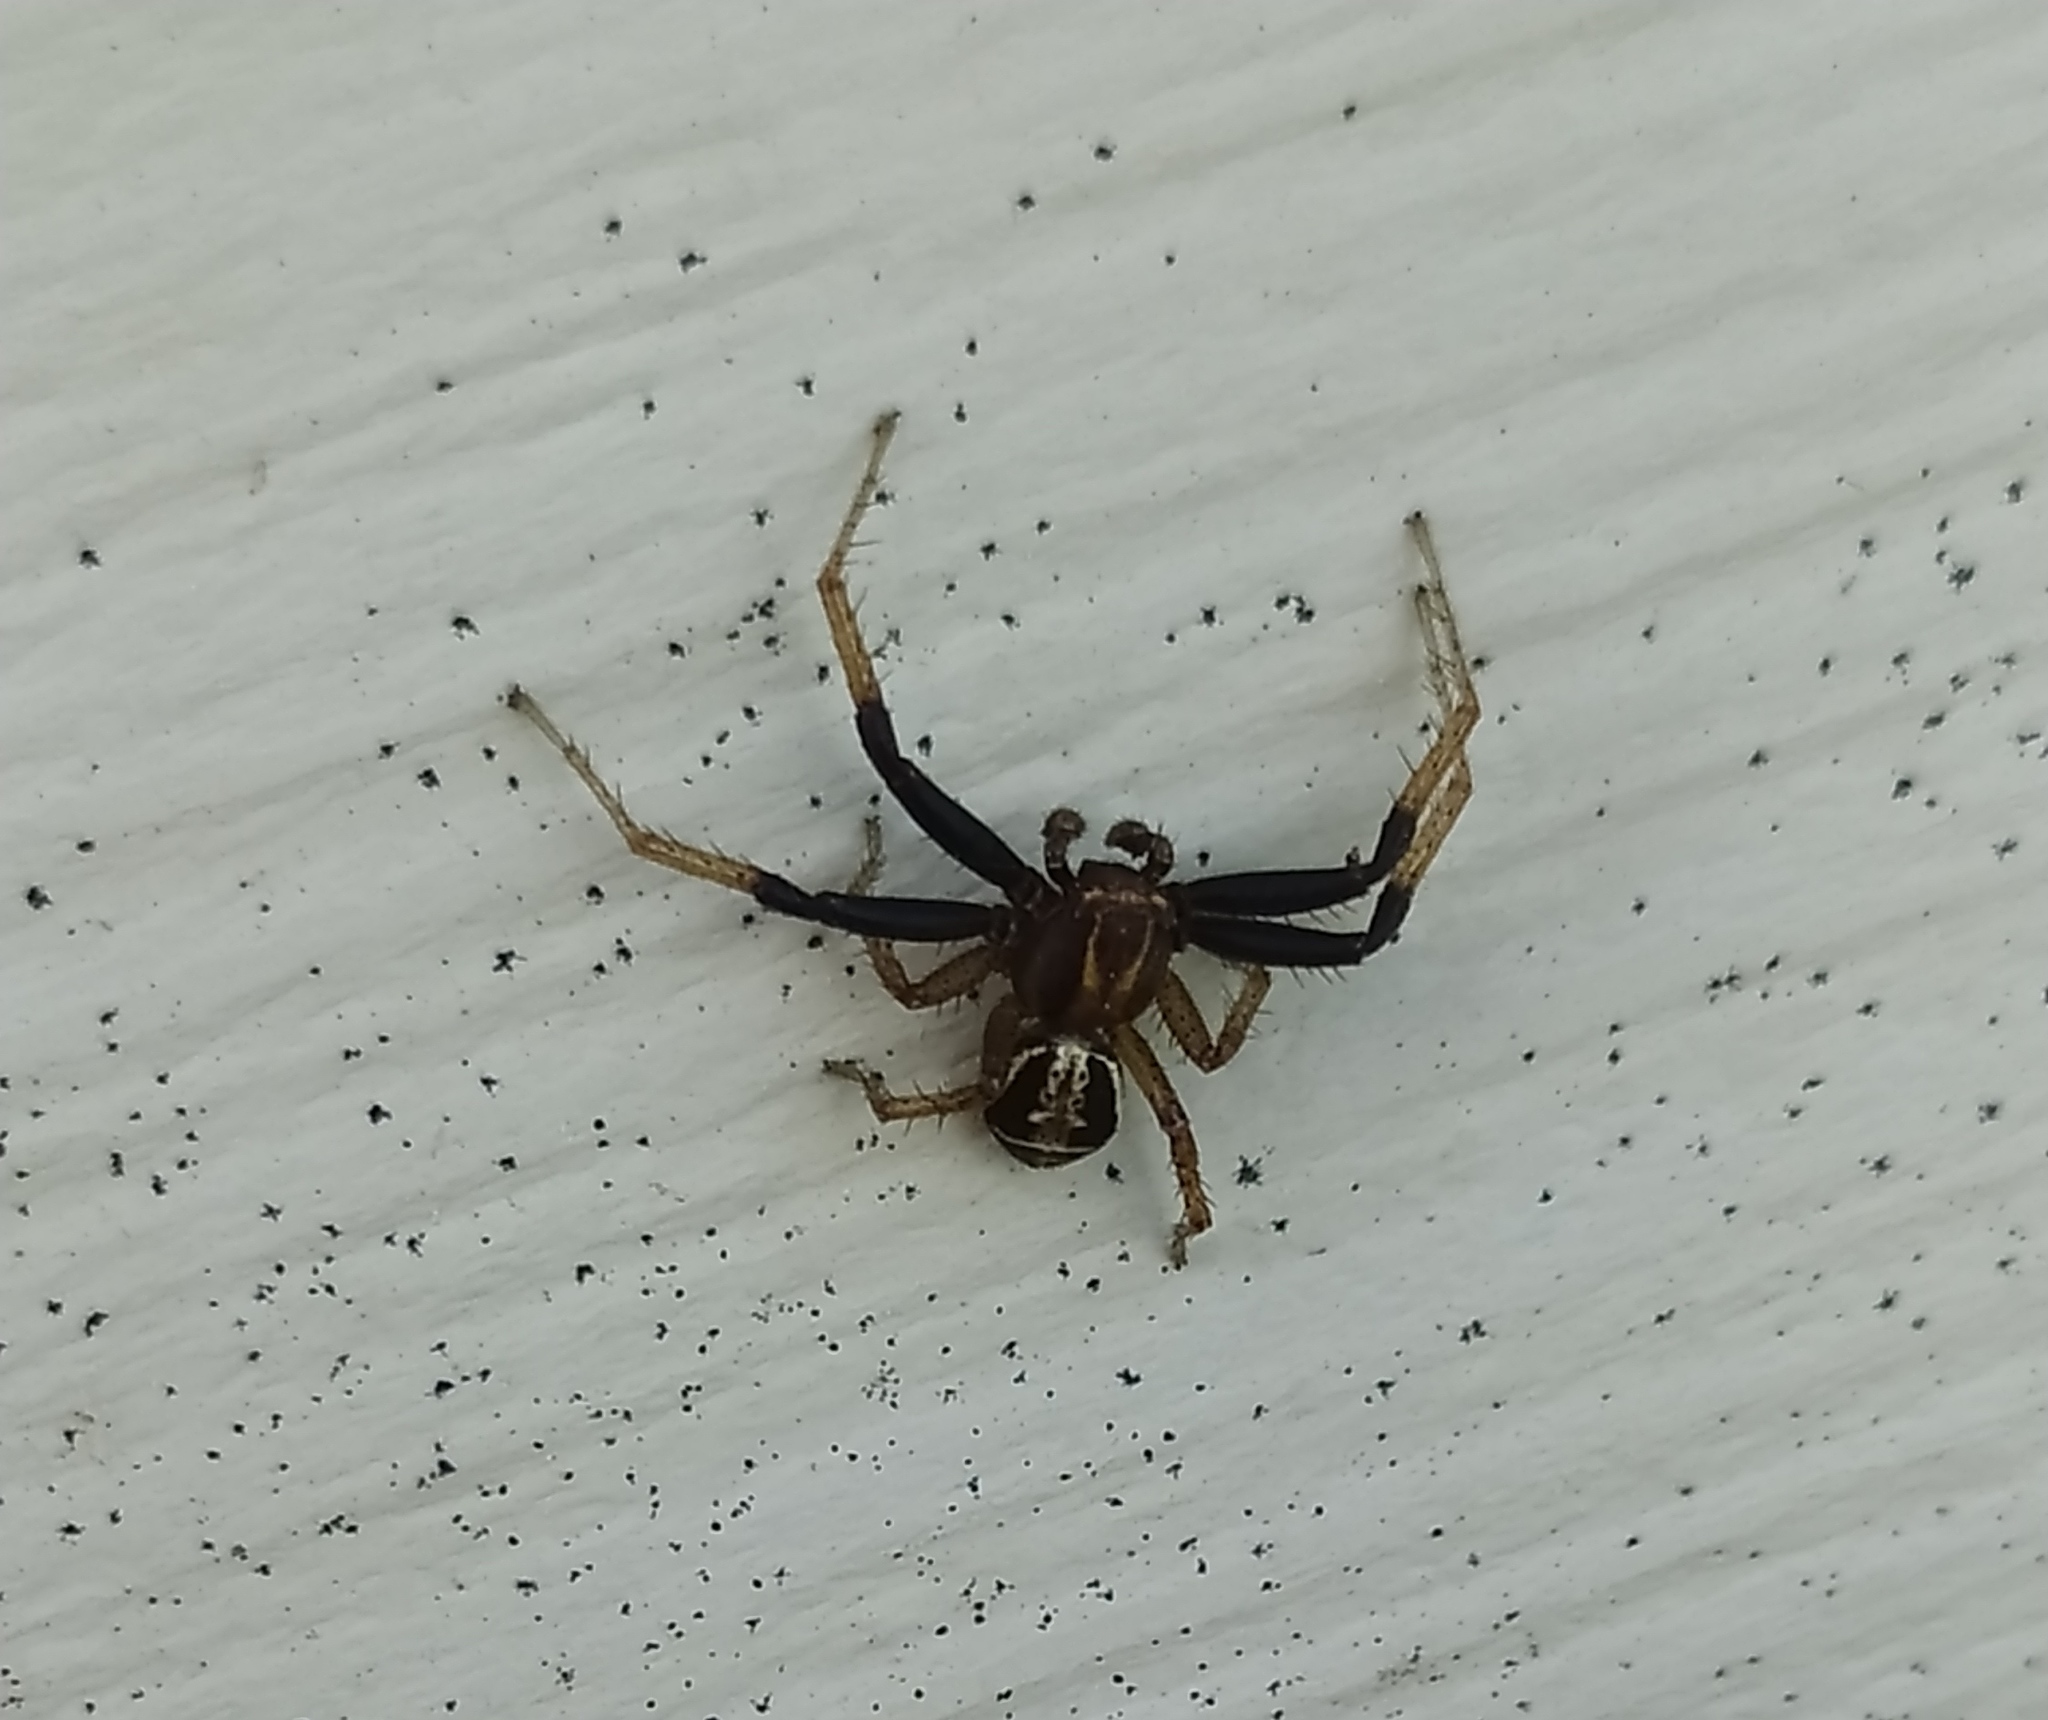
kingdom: Animalia
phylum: Arthropoda
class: Arachnida
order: Araneae
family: Thomisidae
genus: Xysticus
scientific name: Xysticus ulmi
